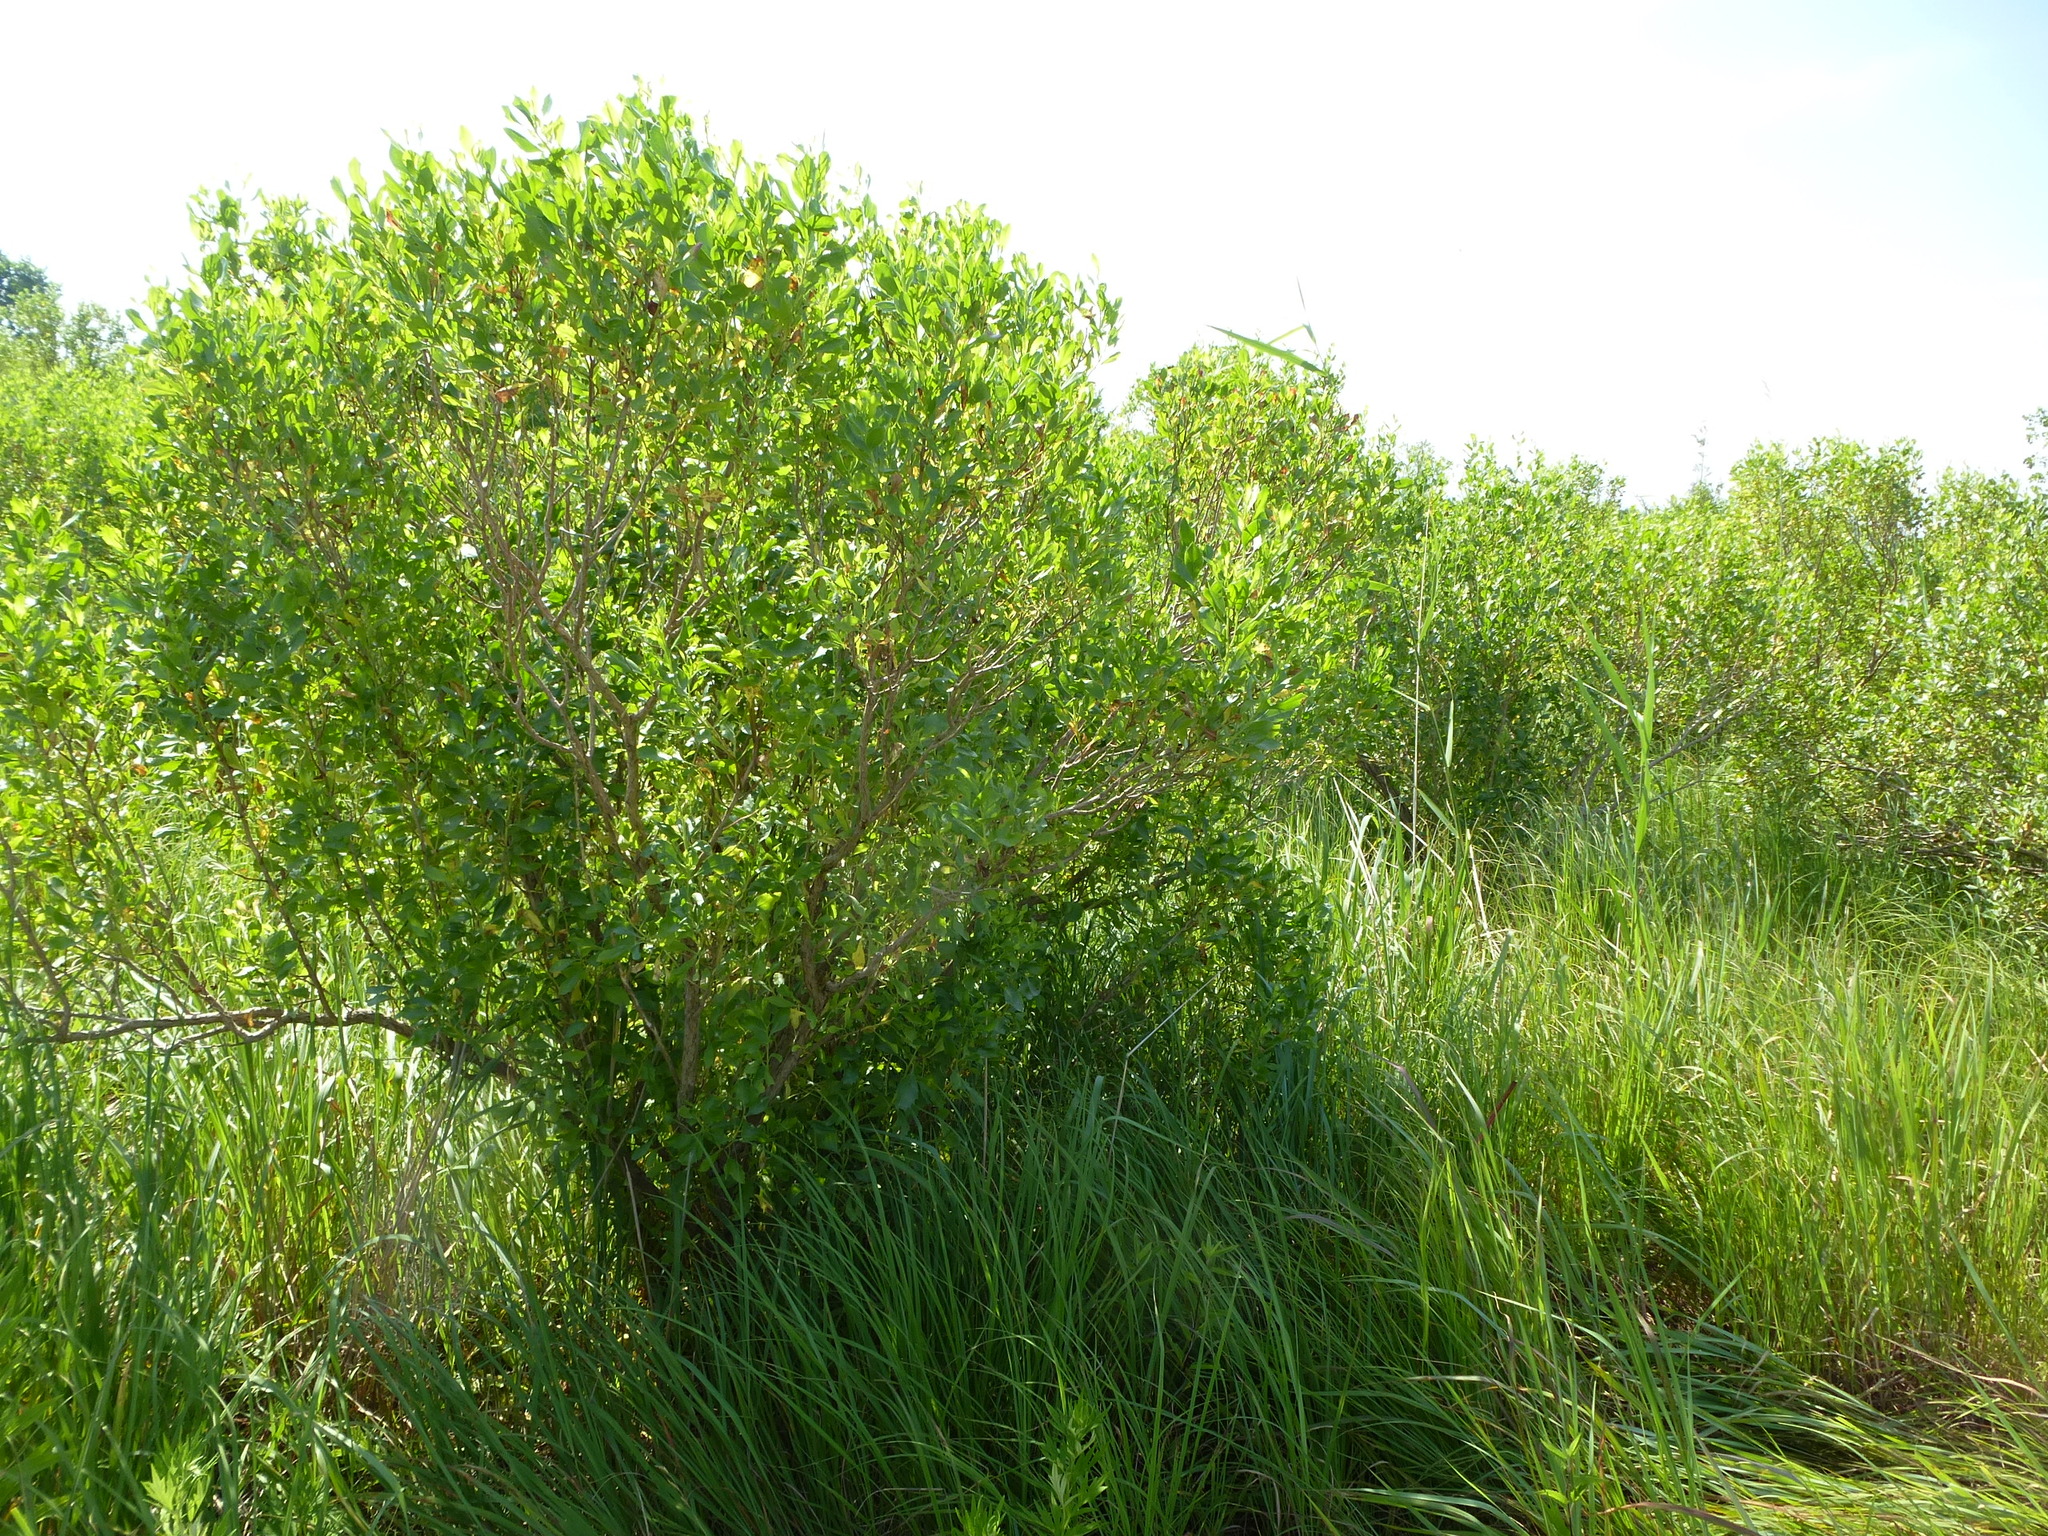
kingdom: Plantae
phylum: Tracheophyta
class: Magnoliopsida
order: Asterales
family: Asteraceae
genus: Baccharis
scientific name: Baccharis halimifolia
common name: Eastern baccharis
